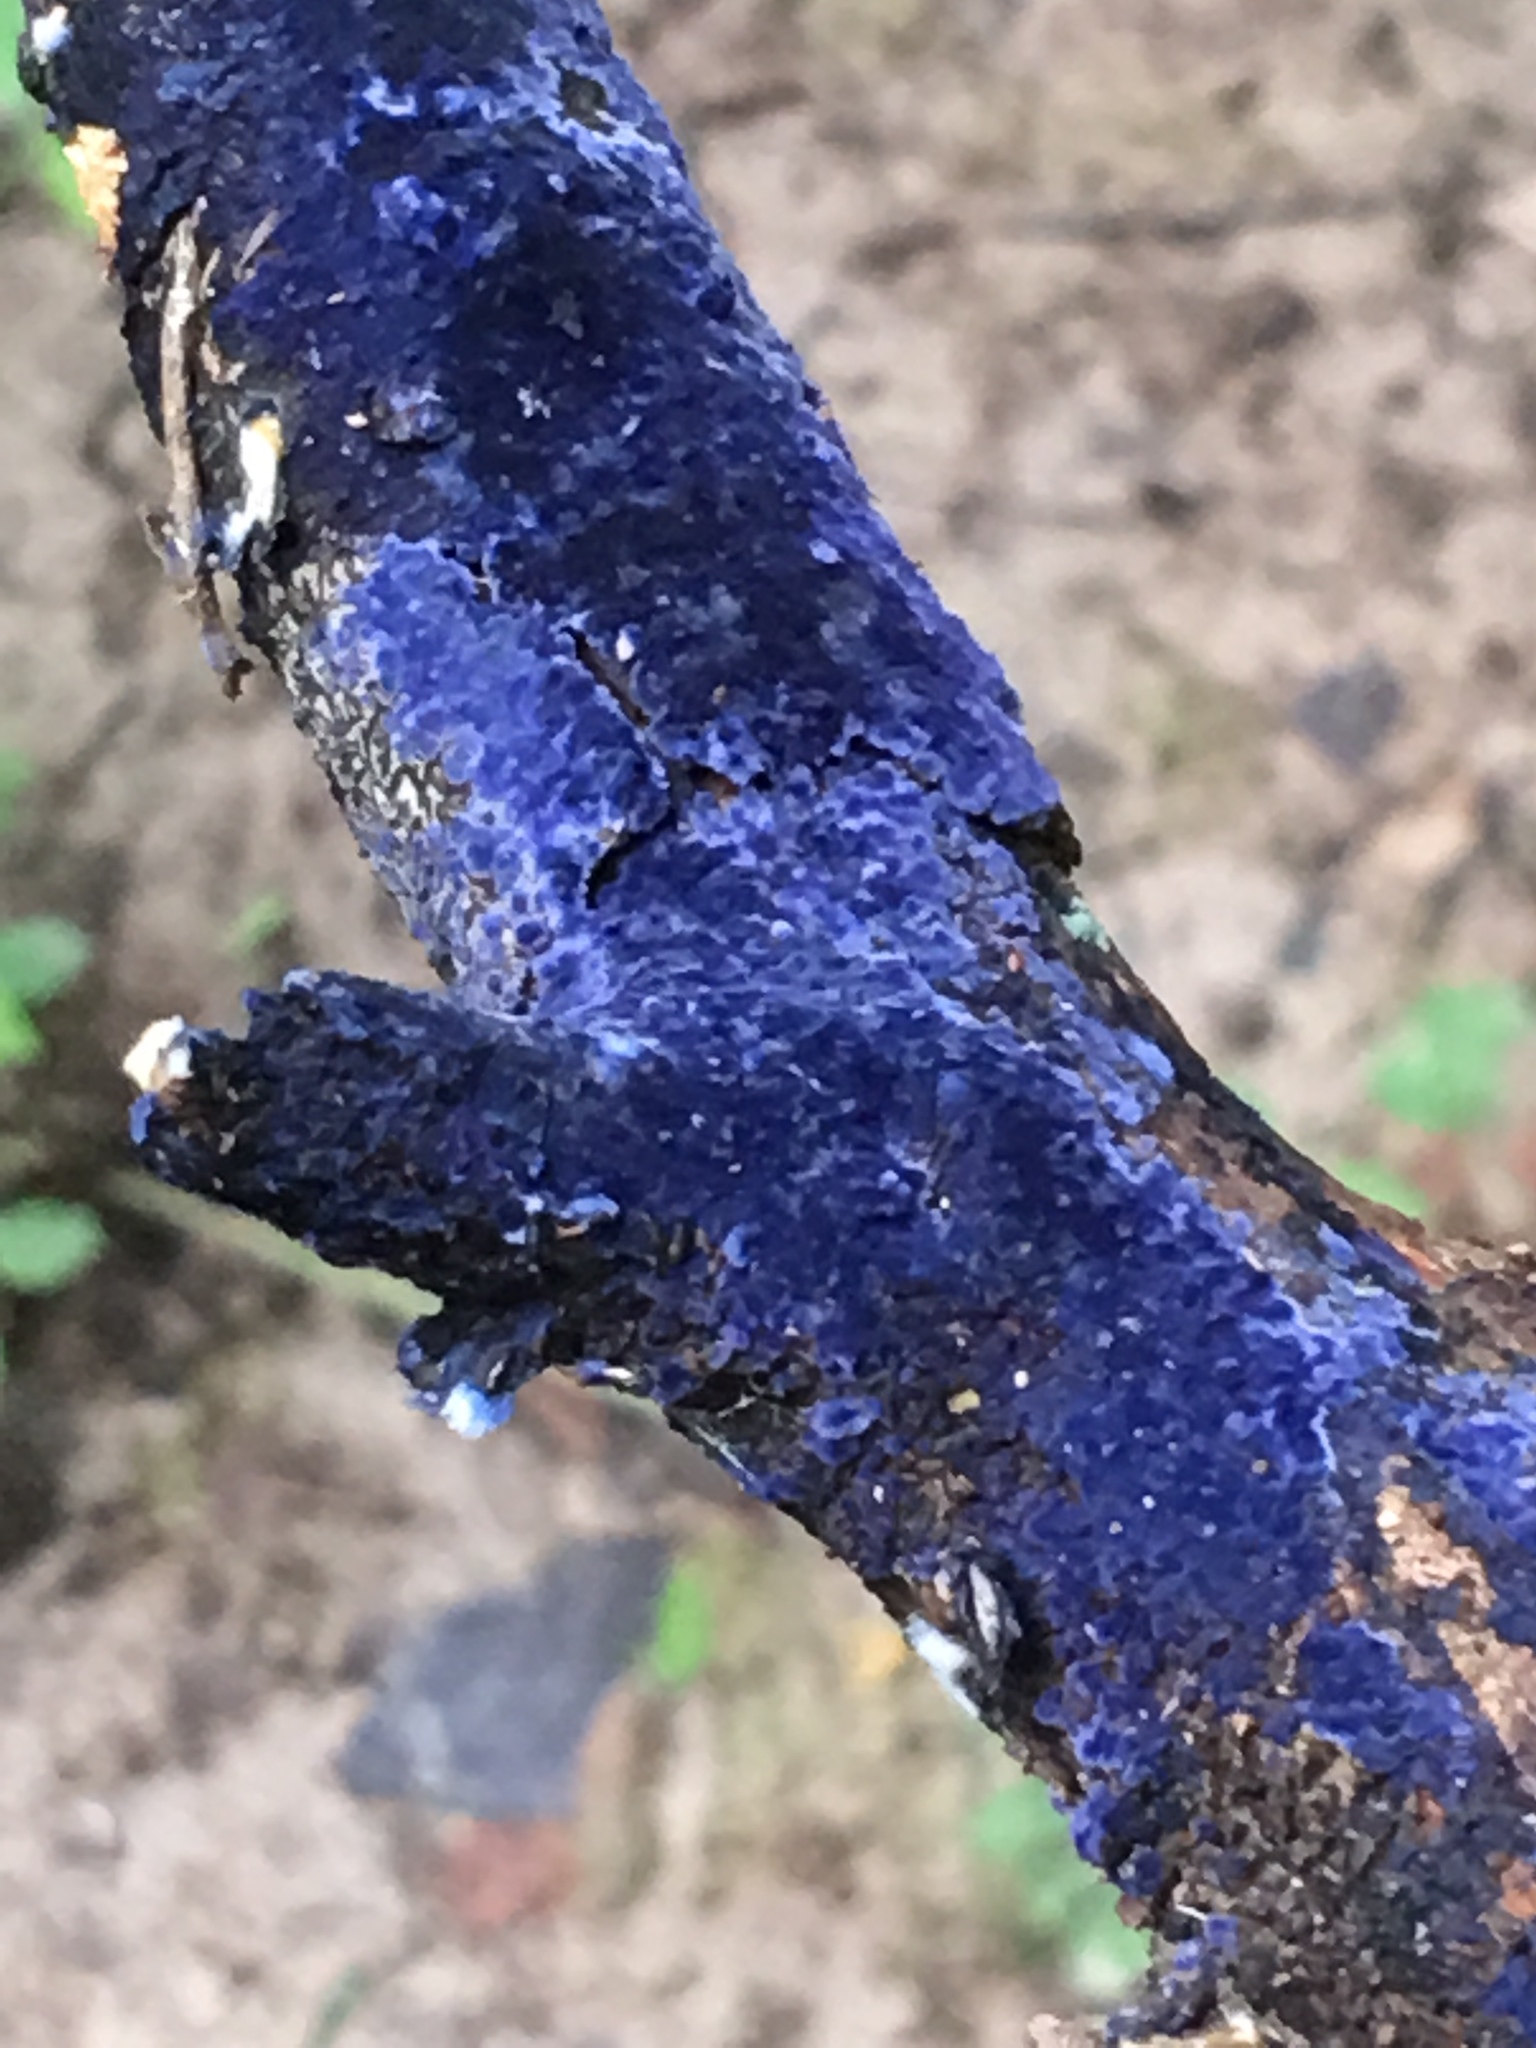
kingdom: Fungi
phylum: Basidiomycota
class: Agaricomycetes
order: Polyporales
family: Phanerochaetaceae
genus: Terana
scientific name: Terana coerulea
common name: Cobalt crust
